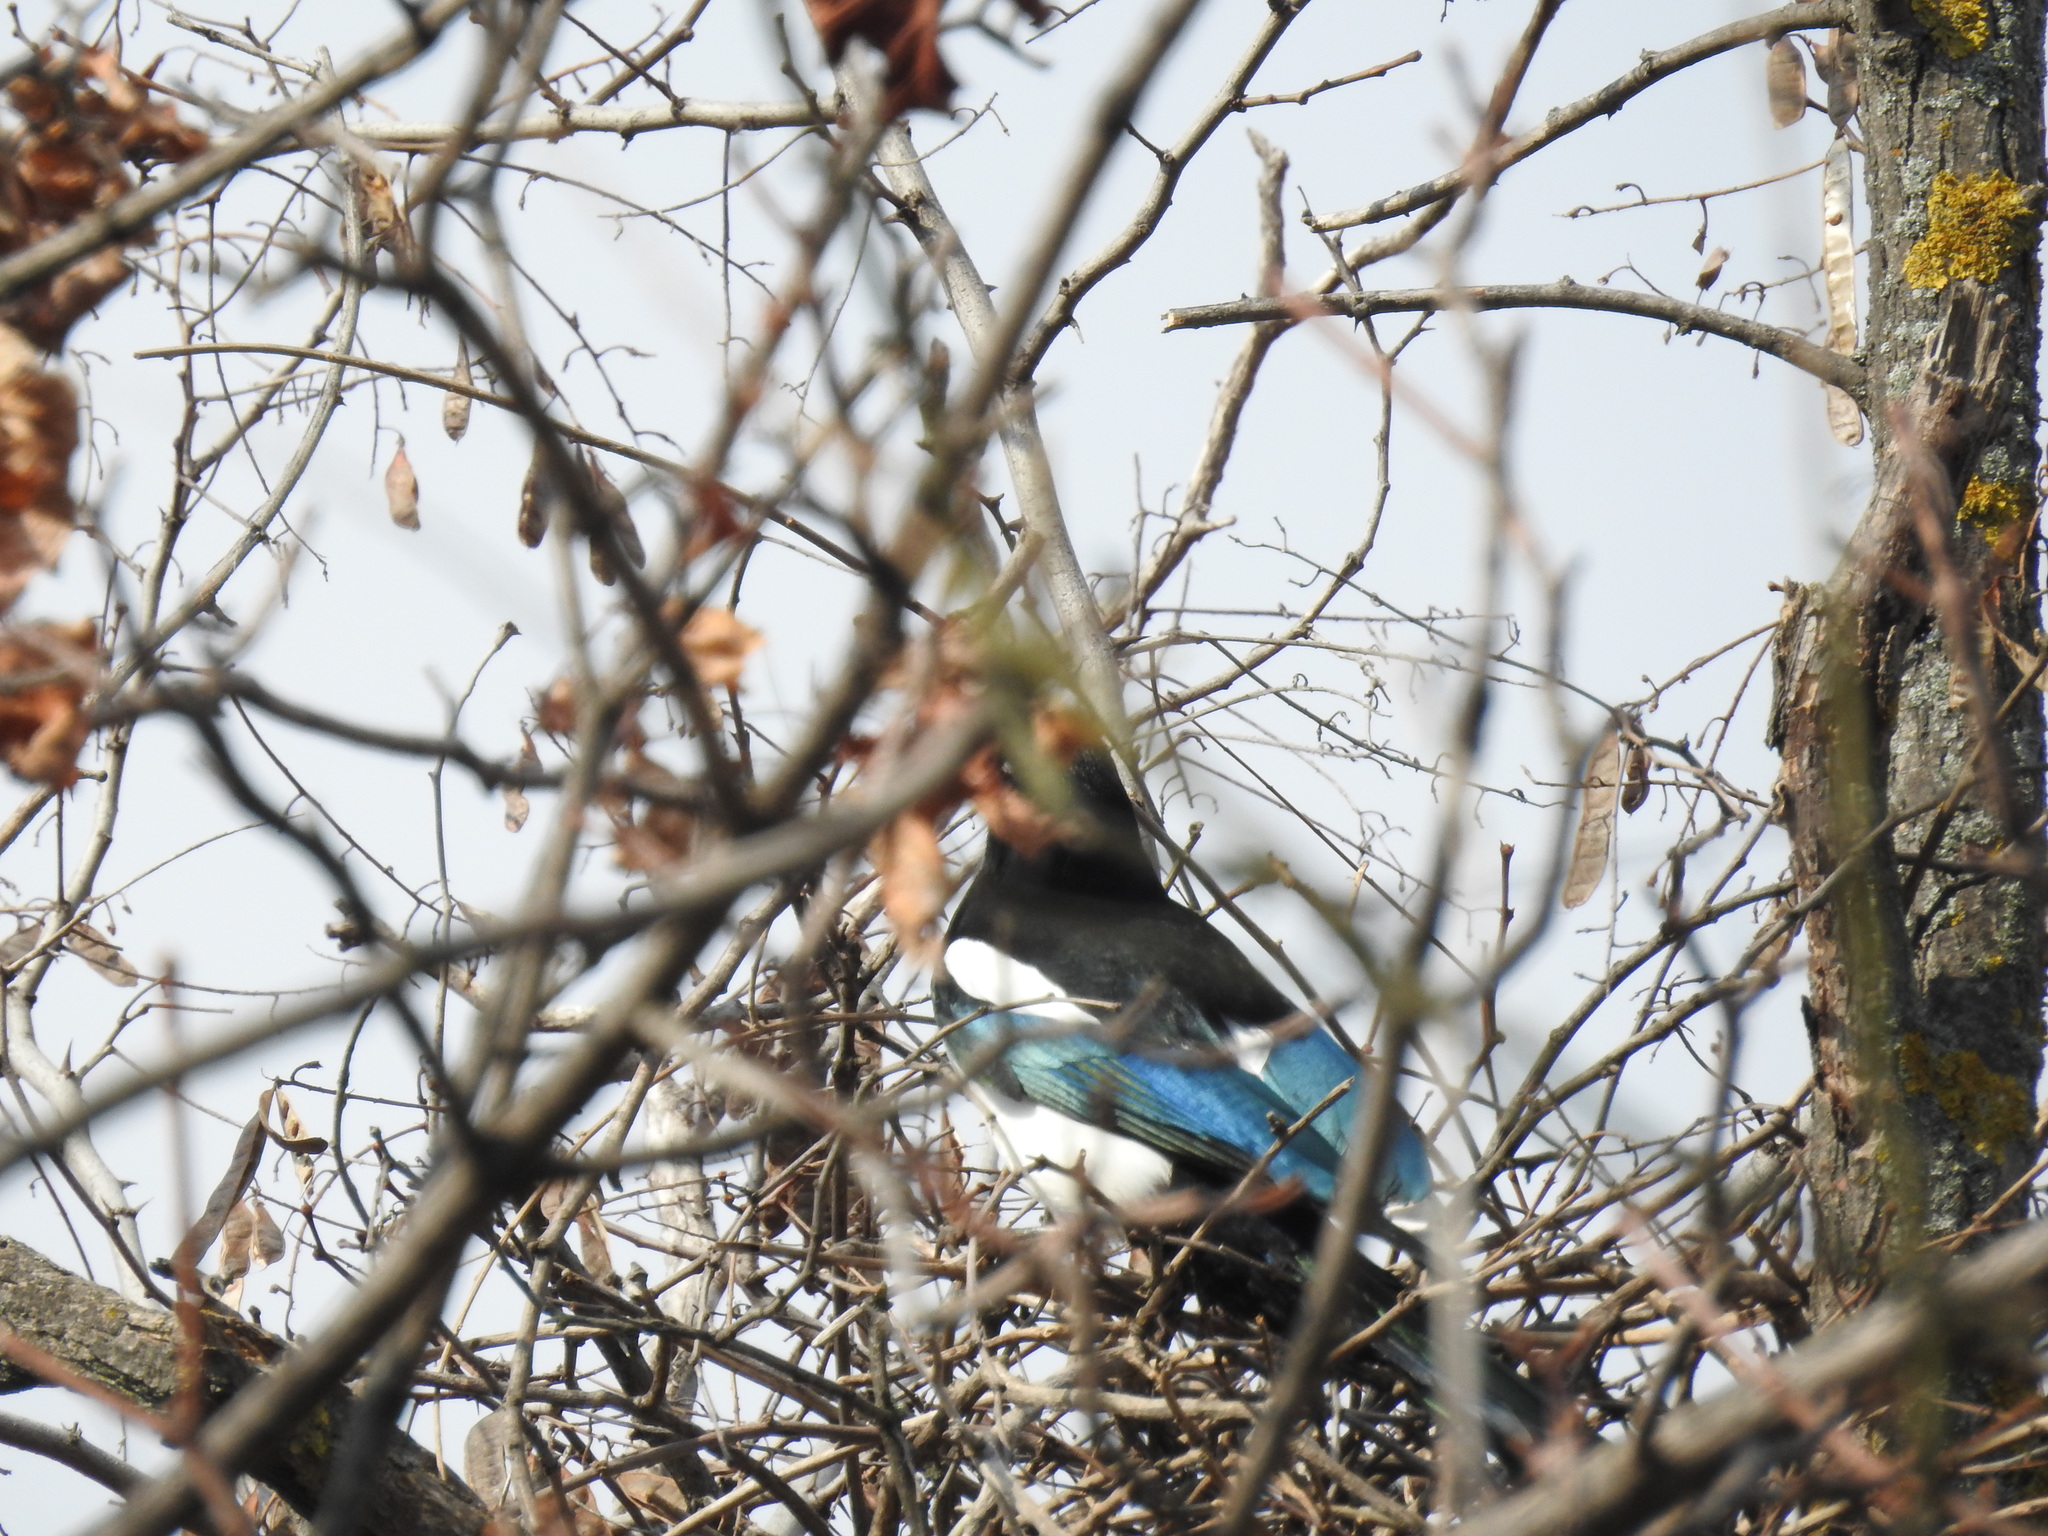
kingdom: Animalia
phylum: Chordata
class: Aves
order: Passeriformes
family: Corvidae
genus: Pica
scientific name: Pica pica
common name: Eurasian magpie
